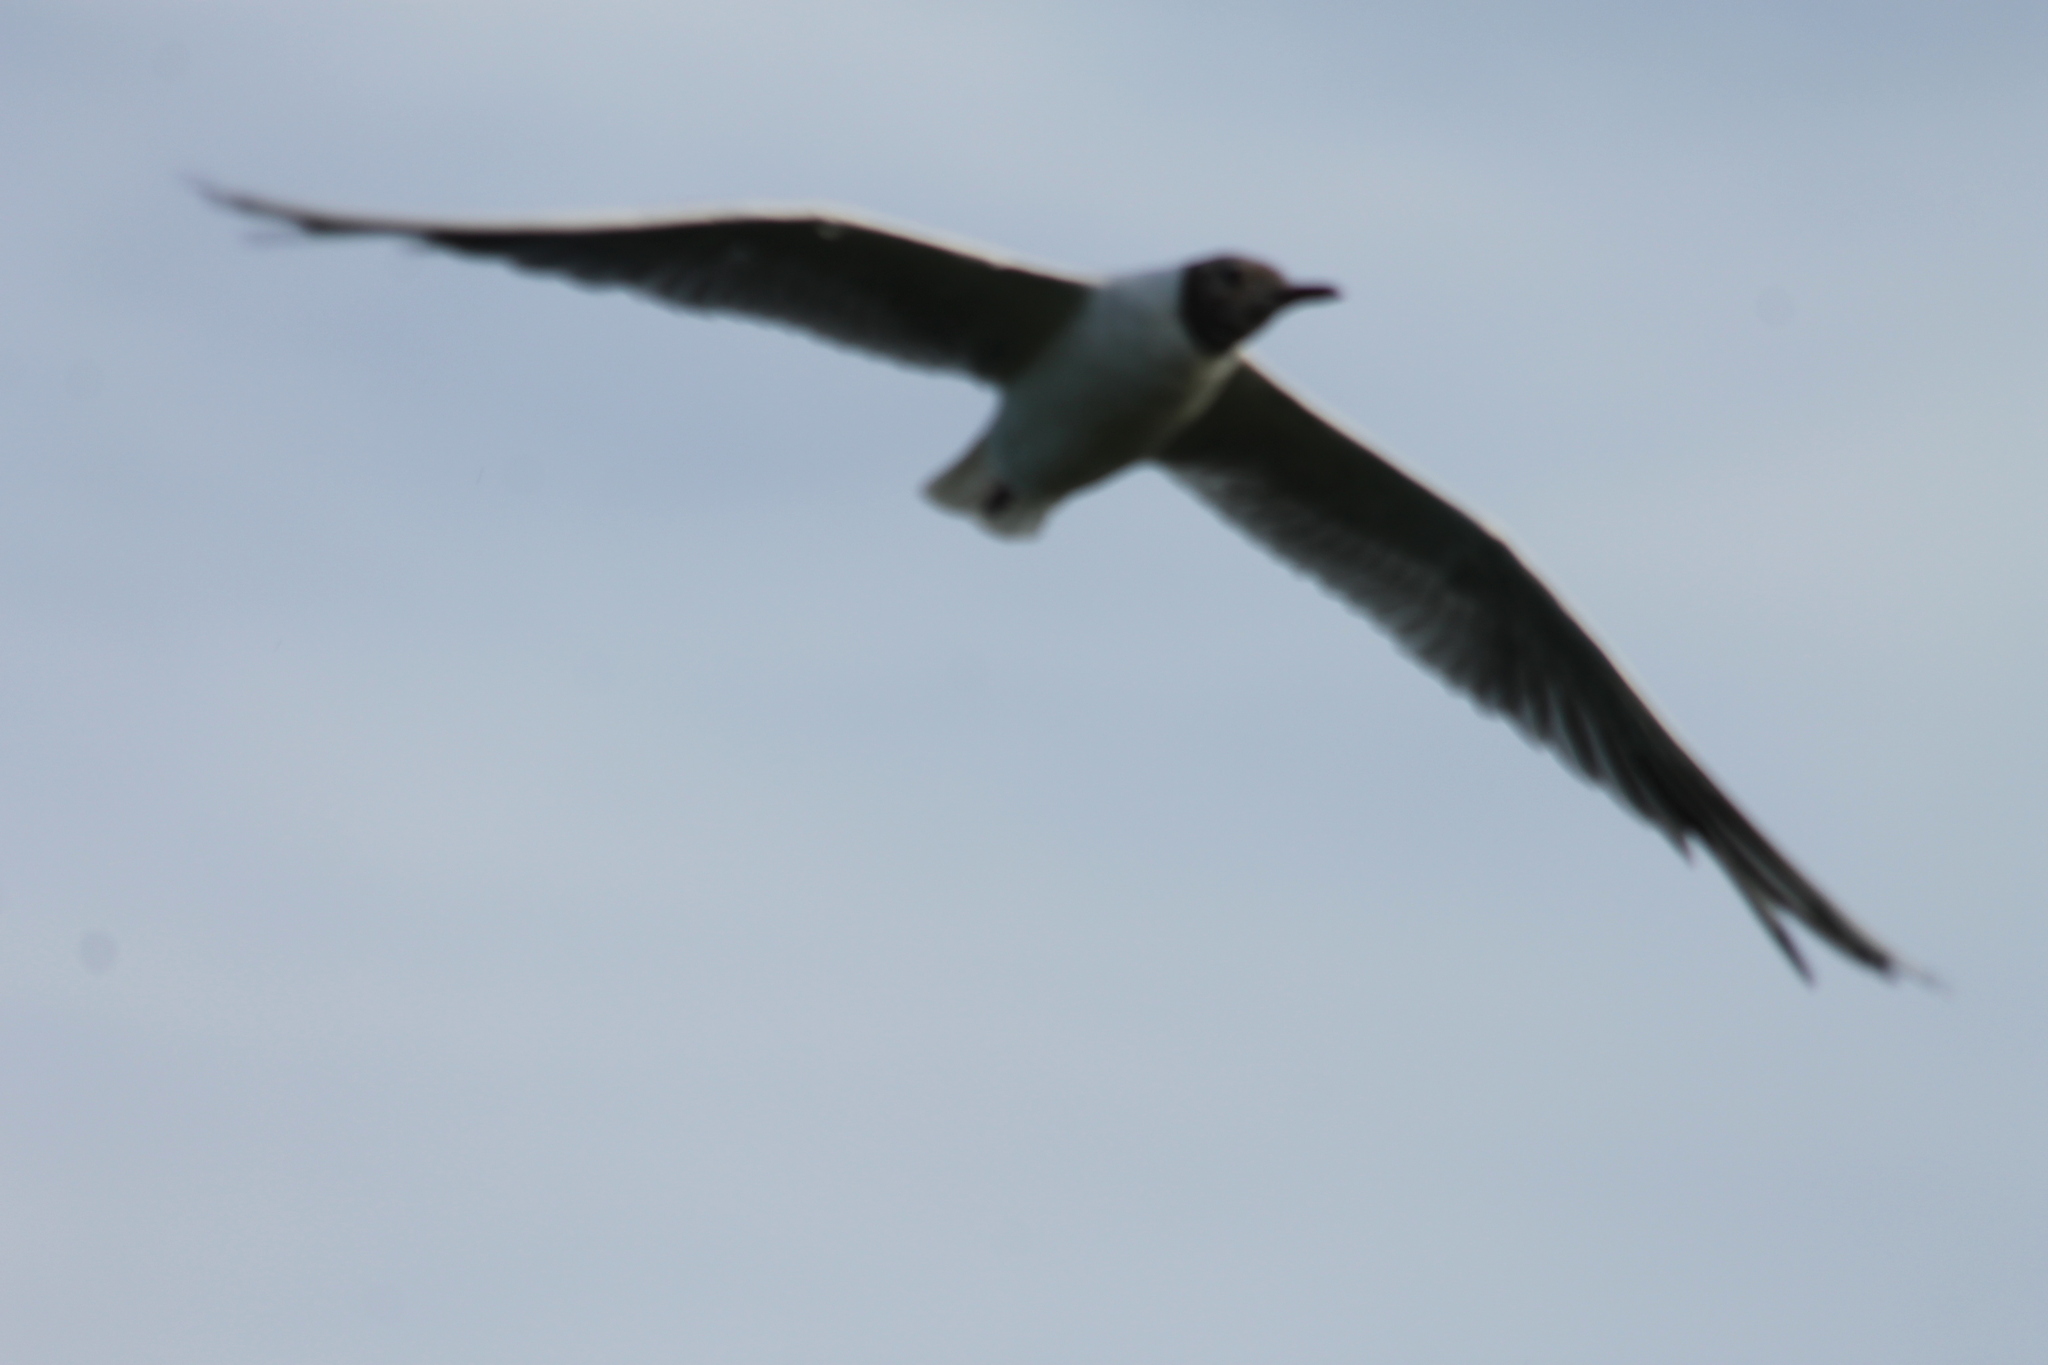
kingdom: Animalia
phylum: Chordata
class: Aves
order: Charadriiformes
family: Laridae
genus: Chroicocephalus
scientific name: Chroicocephalus ridibundus
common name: Black-headed gull
